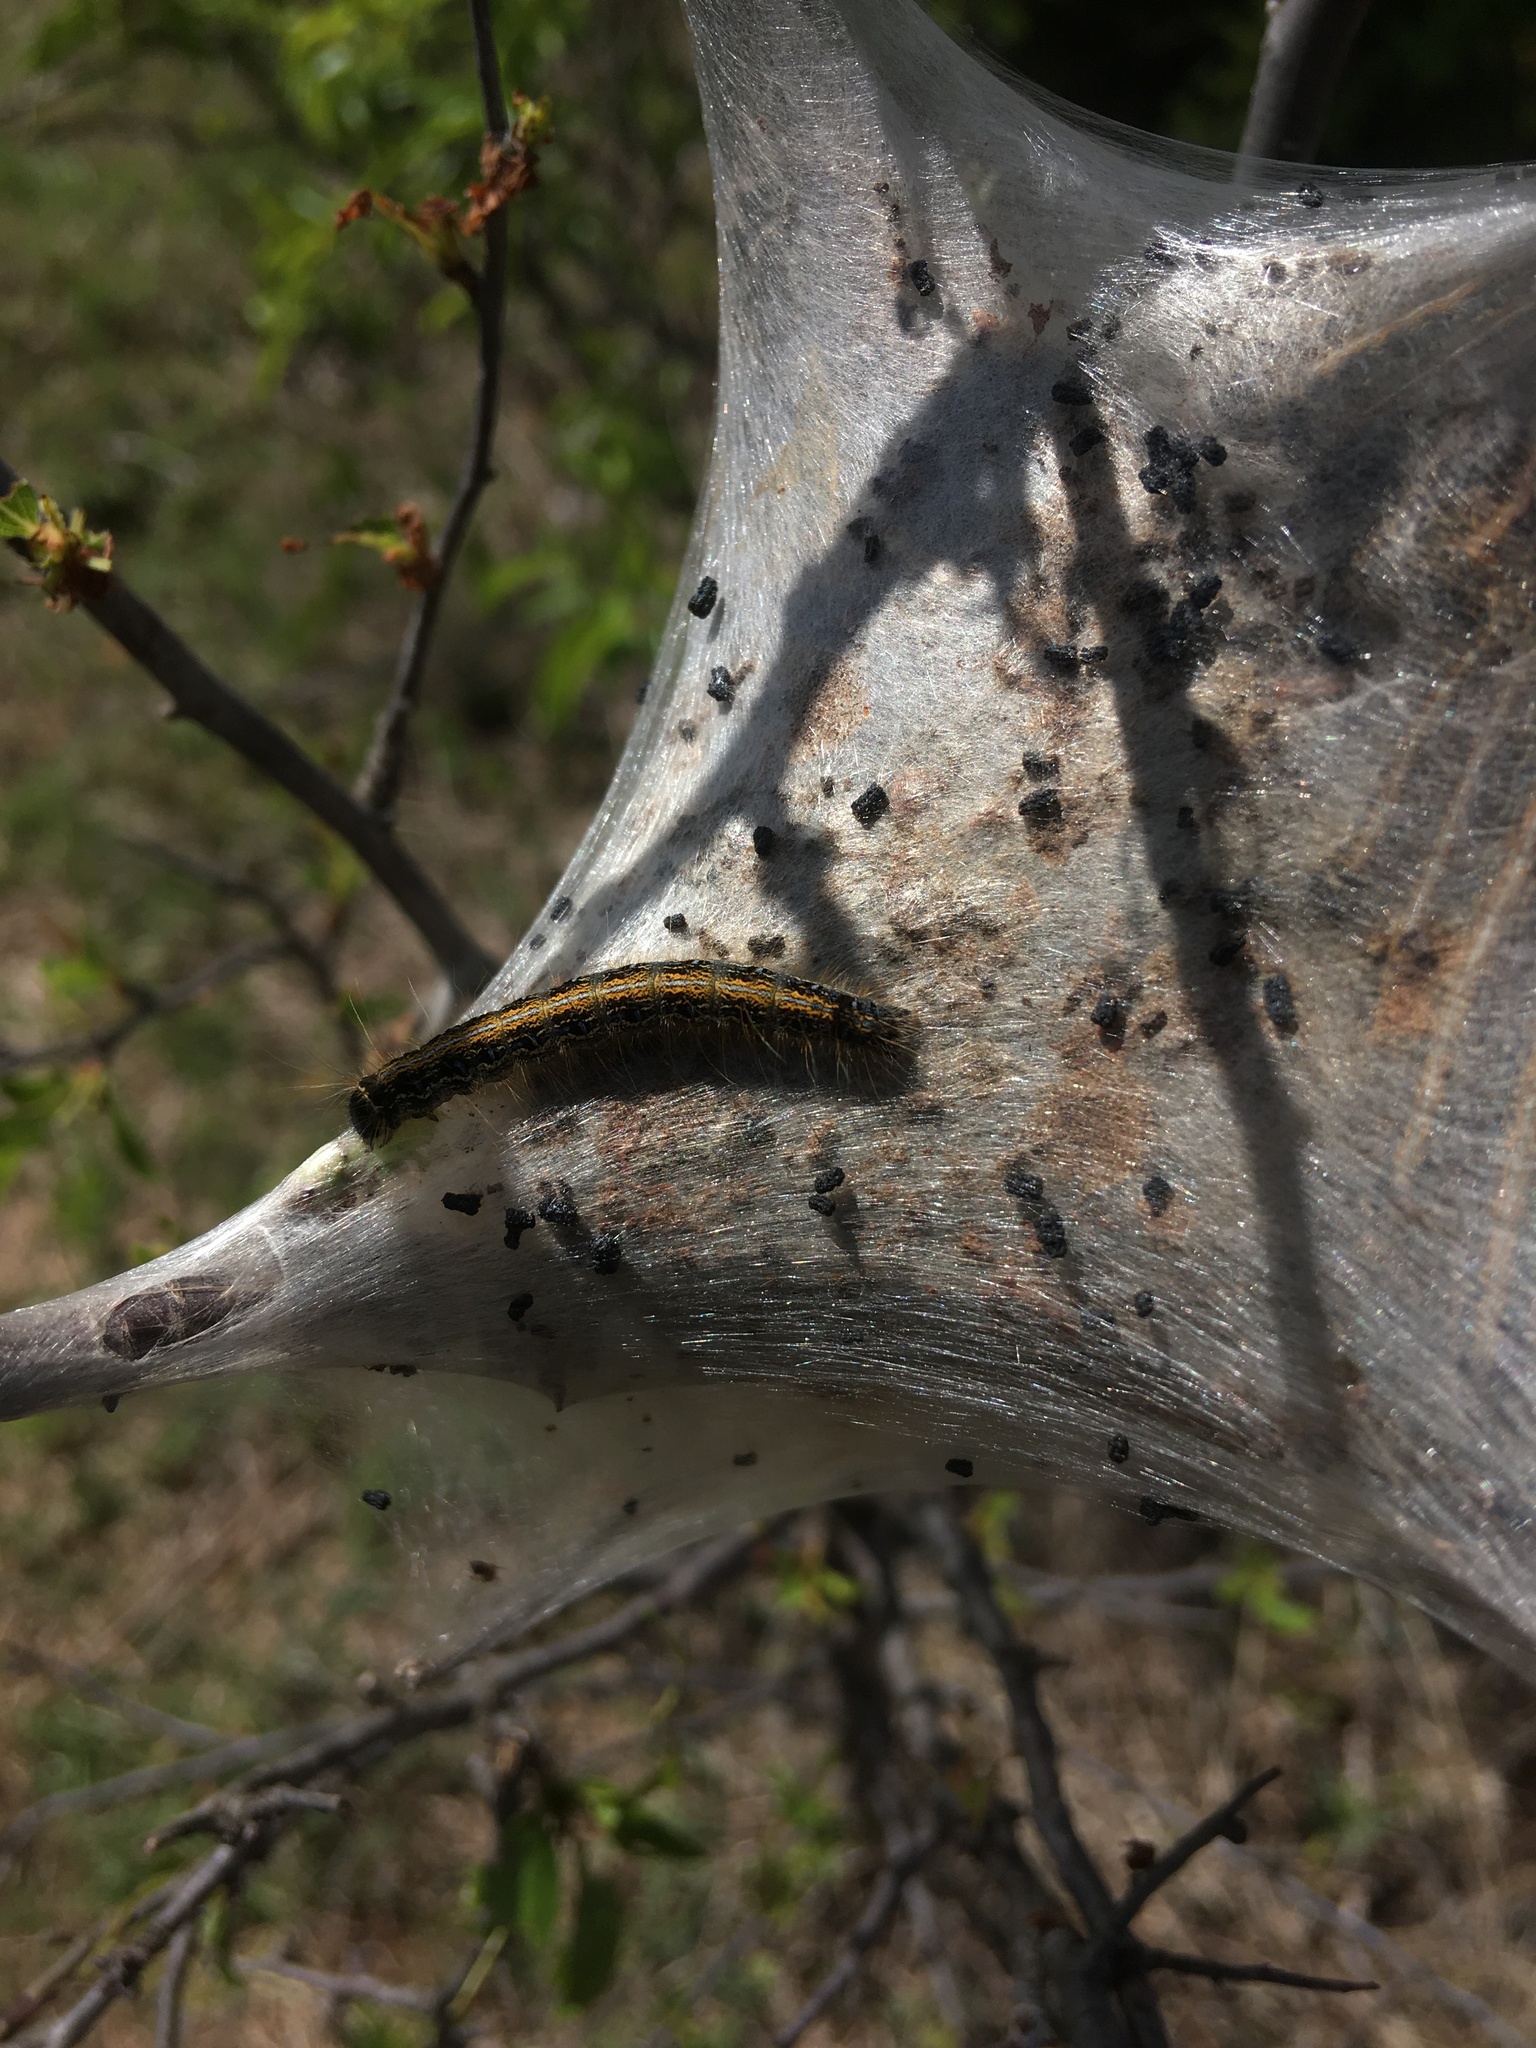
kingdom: Animalia
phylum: Arthropoda
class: Insecta
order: Lepidoptera
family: Lasiocampidae
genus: Malacosoma
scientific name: Malacosoma americana
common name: Eastern tent caterpillar moth
